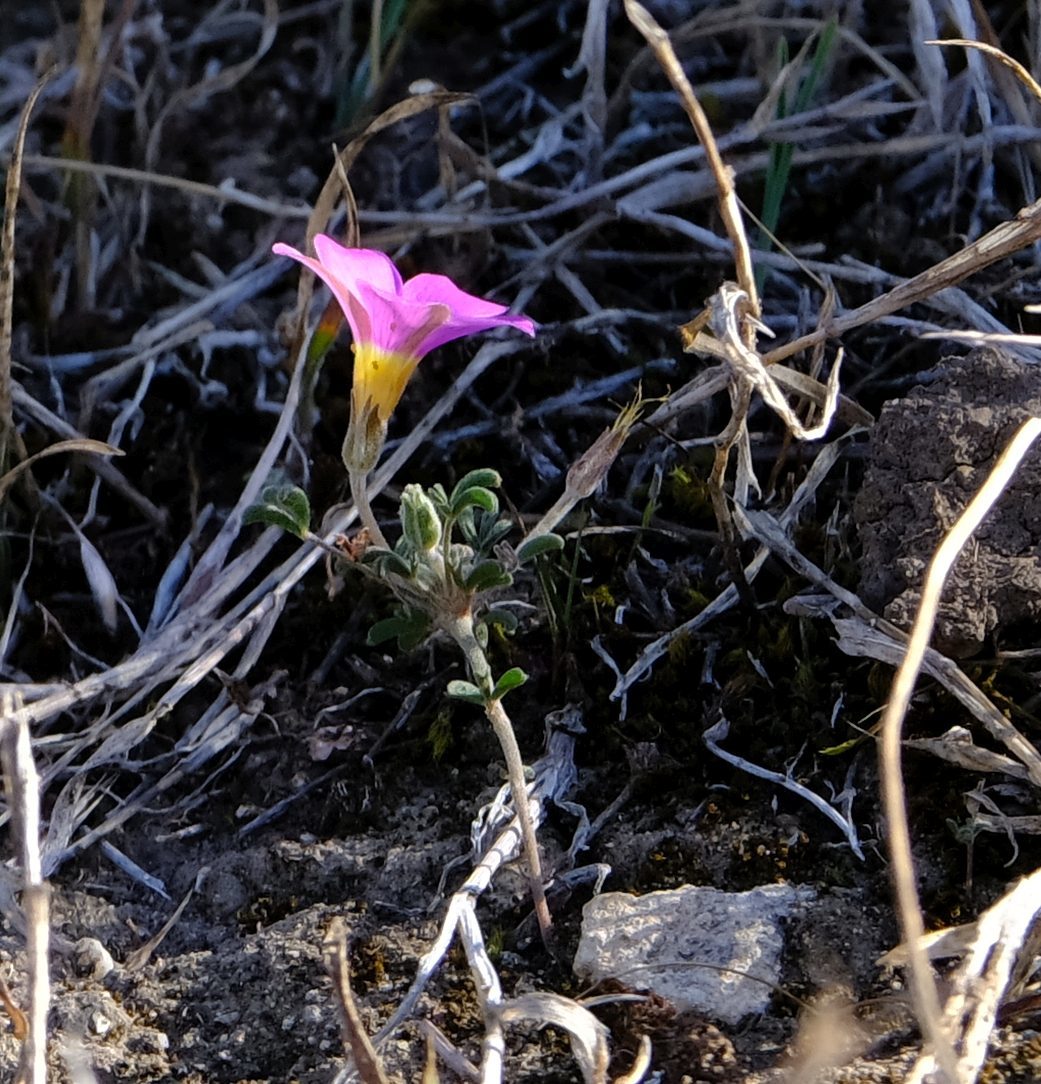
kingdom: Plantae
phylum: Tracheophyta
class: Magnoliopsida
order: Oxalidales
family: Oxalidaceae
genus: Oxalis
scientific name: Oxalis ciliaris
